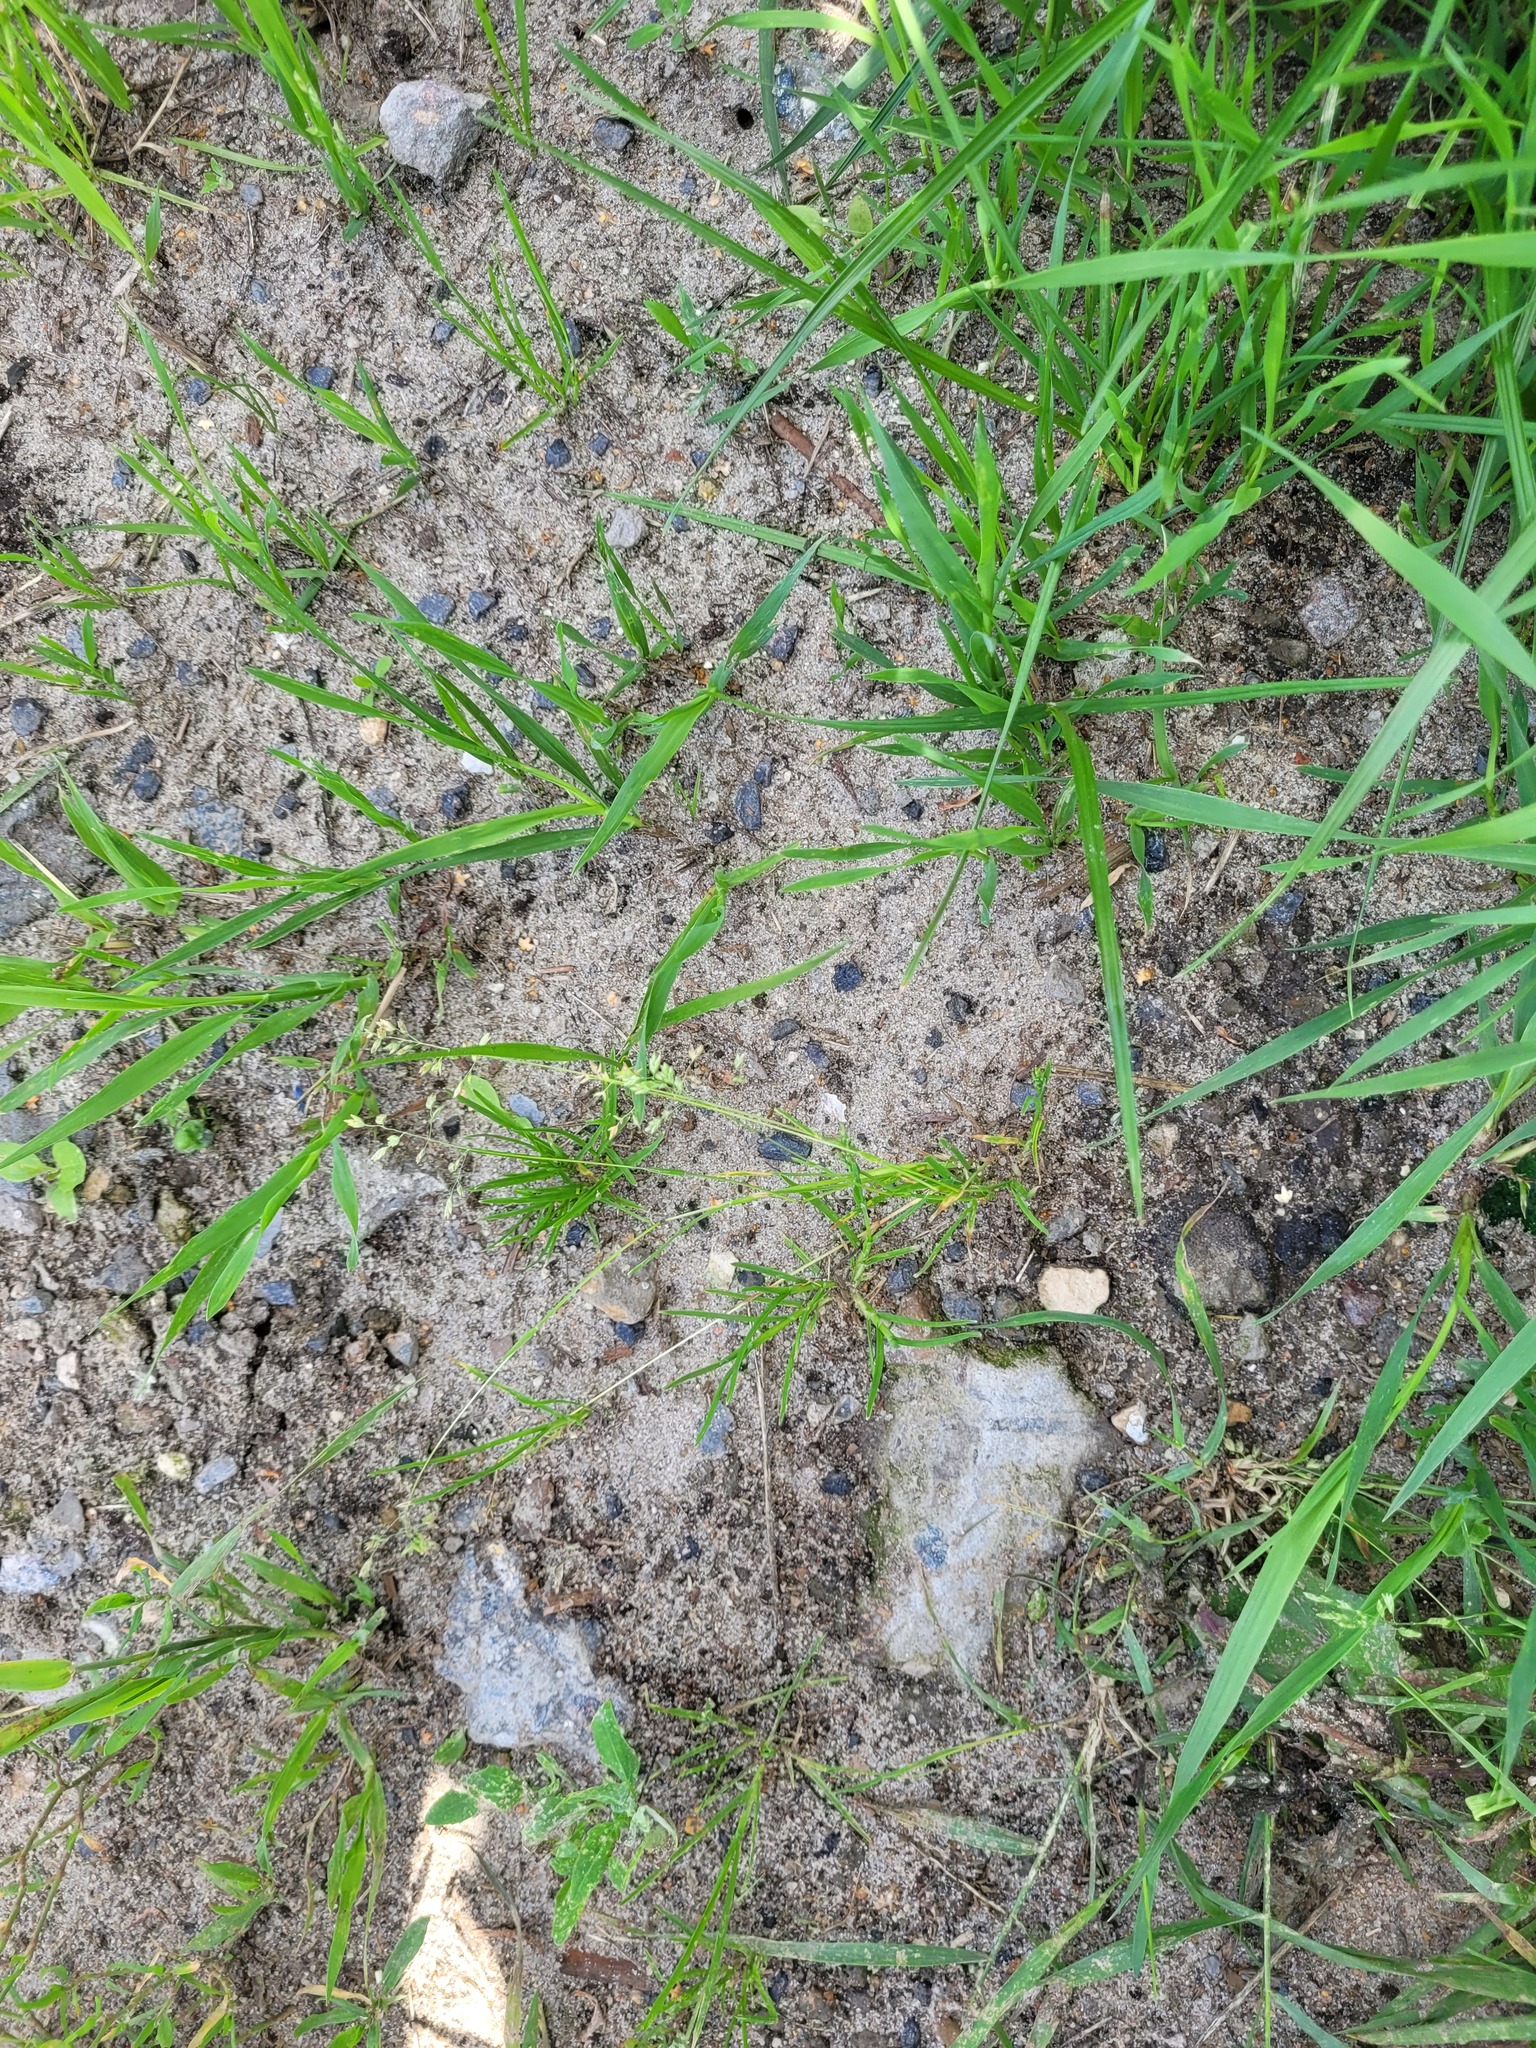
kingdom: Plantae
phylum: Tracheophyta
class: Liliopsida
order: Poales
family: Poaceae
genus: Poa
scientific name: Poa annua
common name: Annual bluegrass
